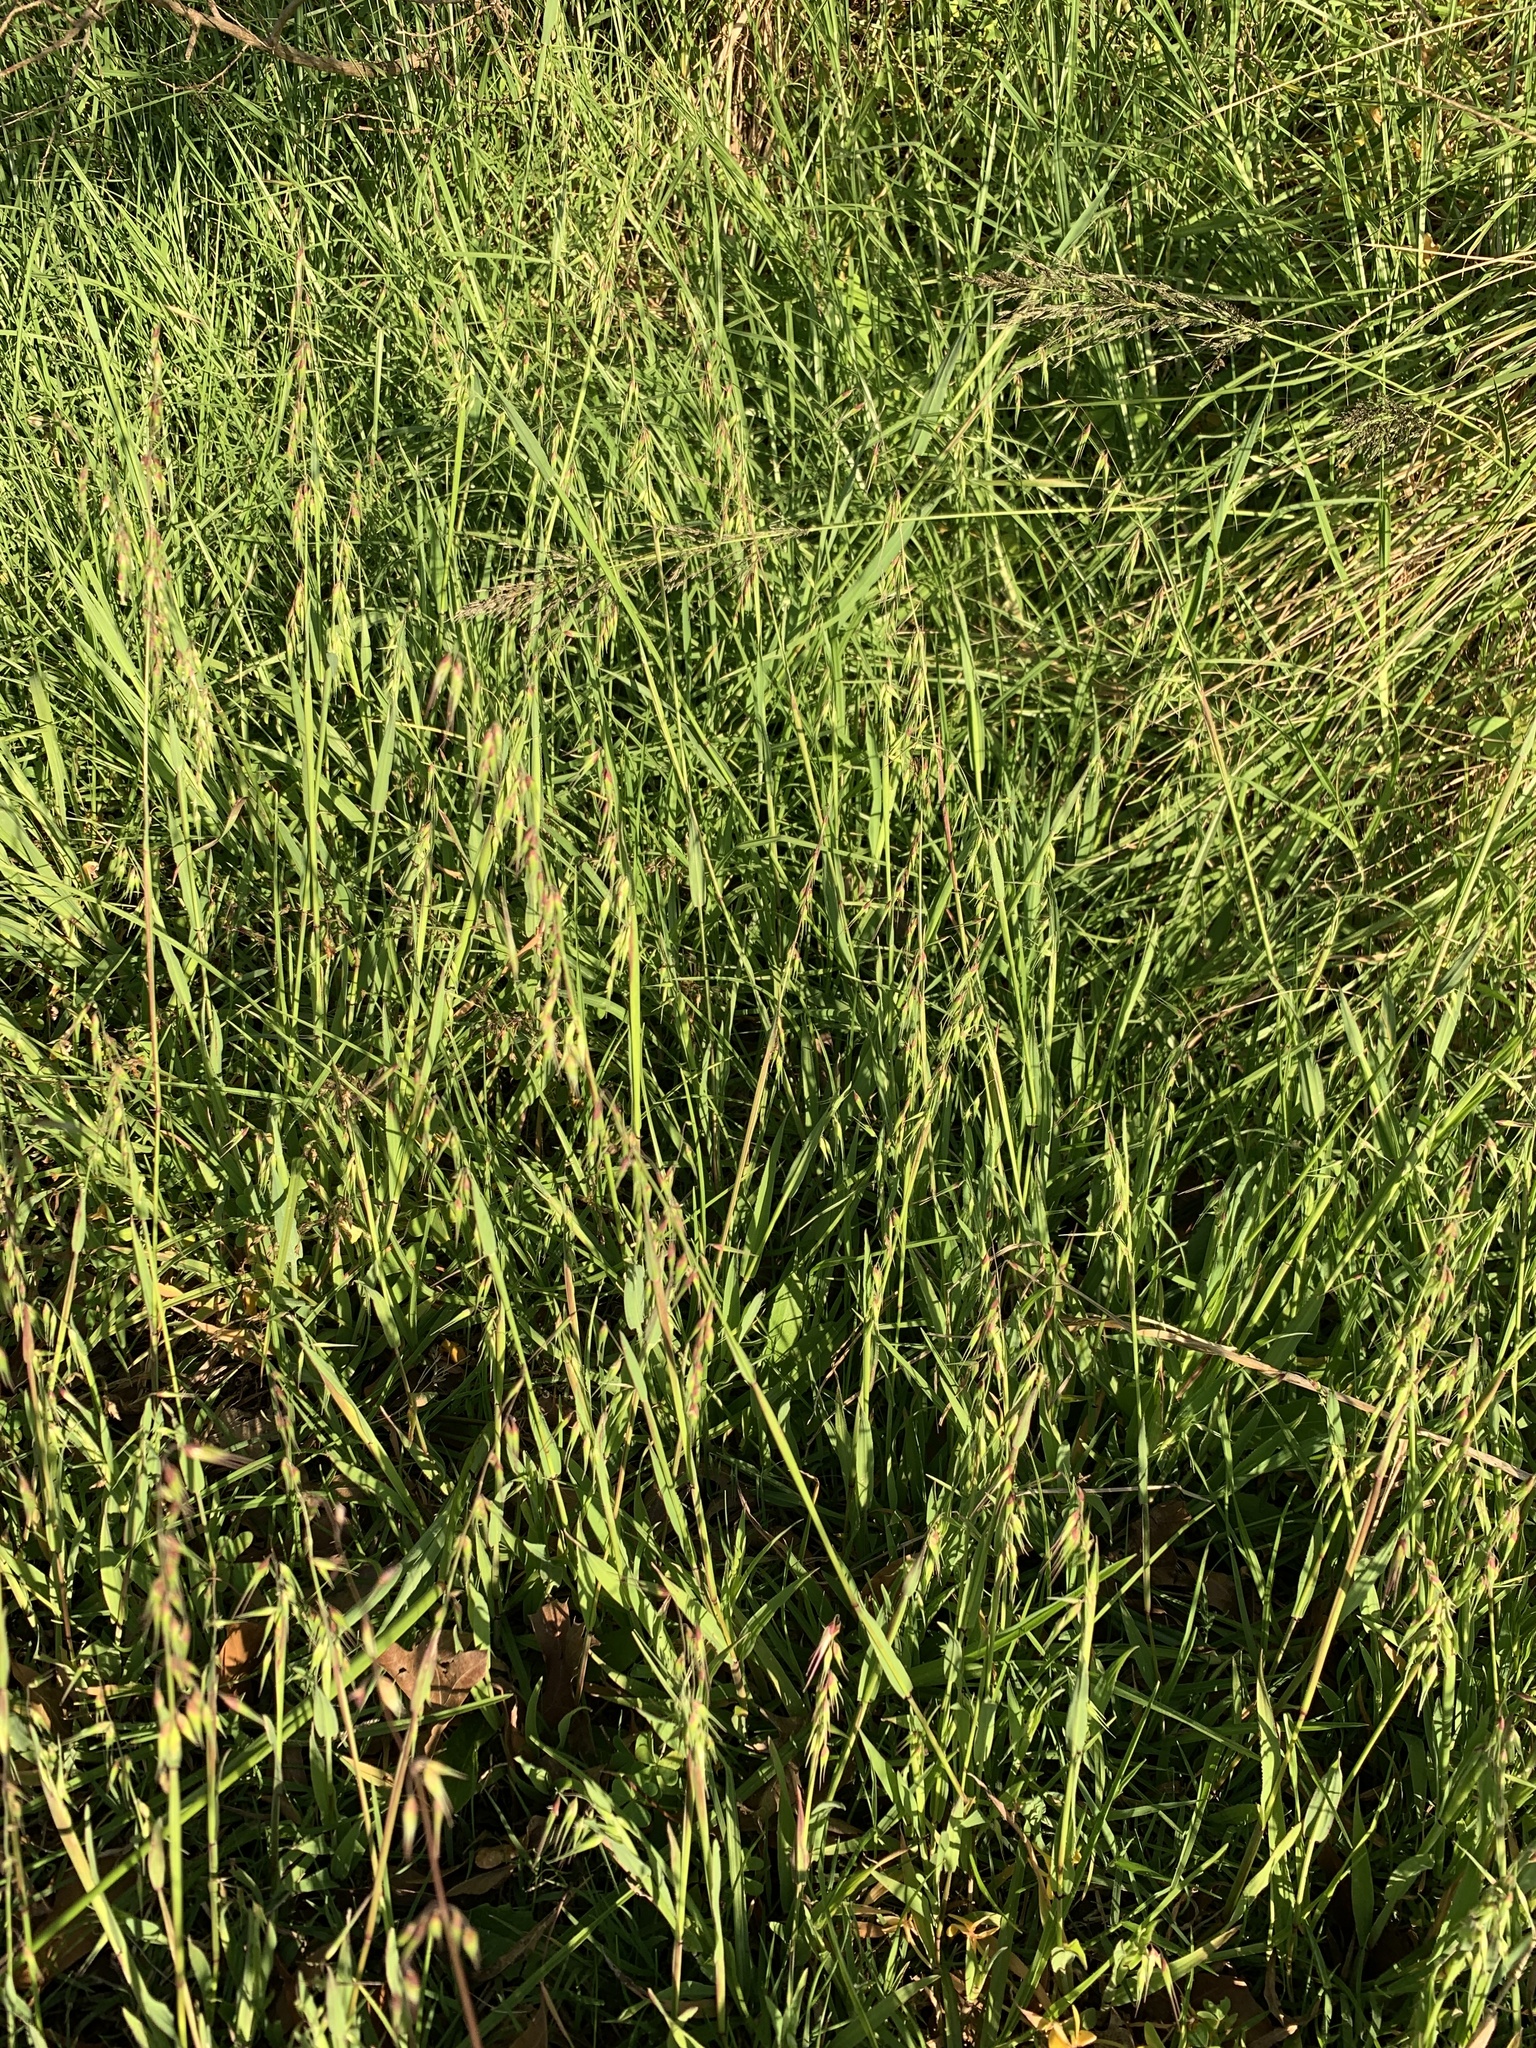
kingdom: Plantae
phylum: Tracheophyta
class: Liliopsida
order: Poales
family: Poaceae
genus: Ehrharta
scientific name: Ehrharta longiflora
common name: Longflowered veldtgrass
